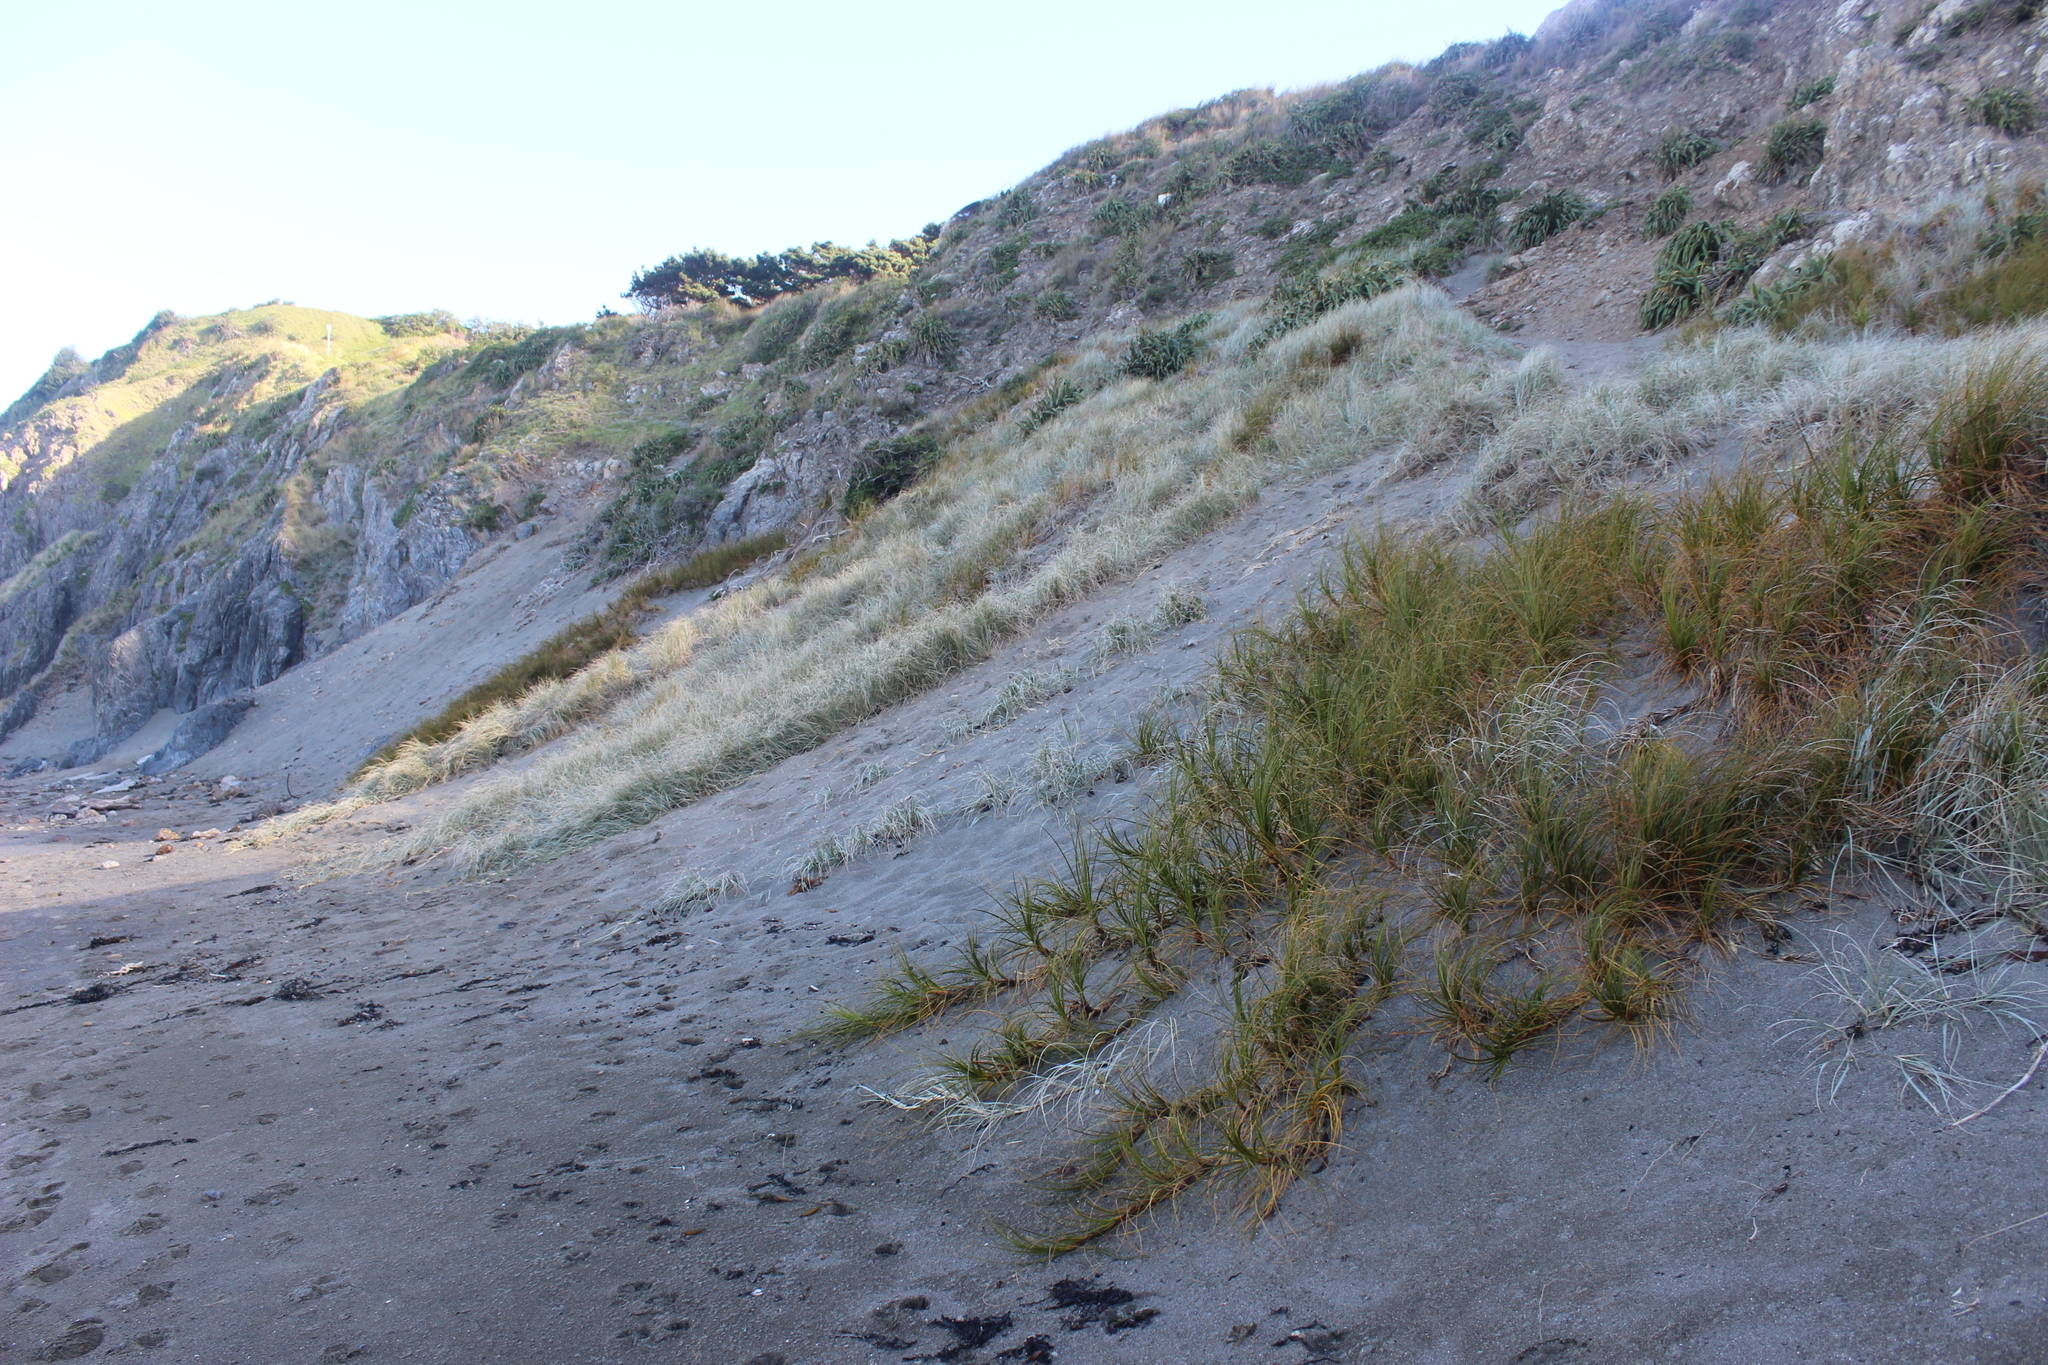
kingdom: Plantae
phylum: Tracheophyta
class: Liliopsida
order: Poales
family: Cyperaceae
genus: Ficinia
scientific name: Ficinia spiralis
